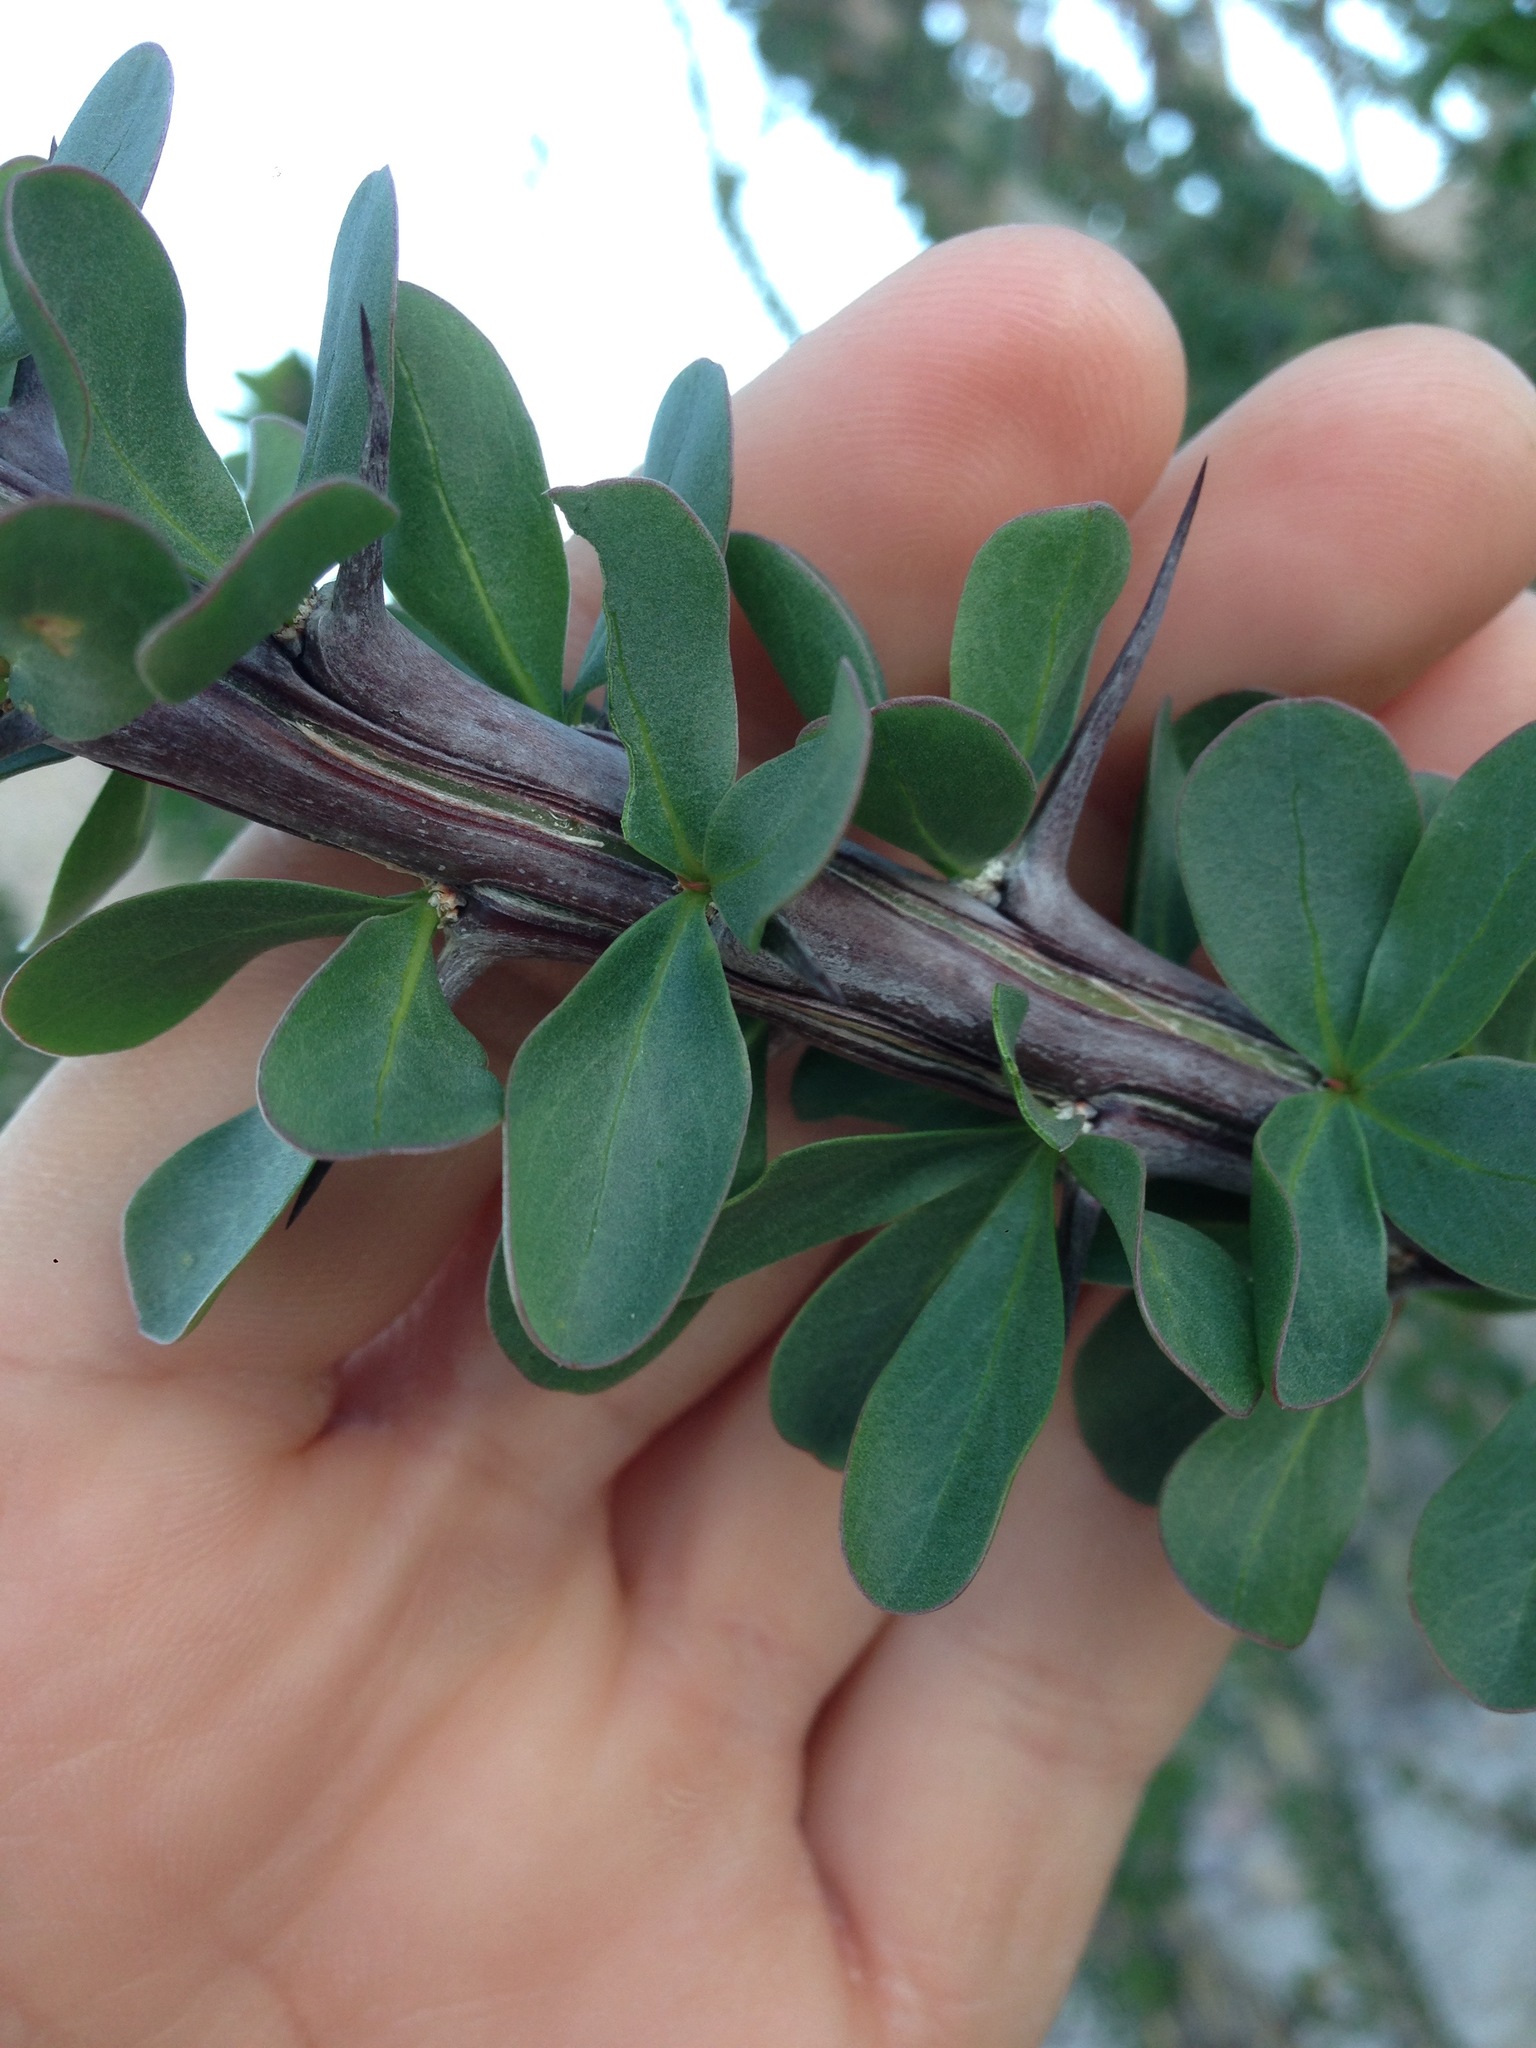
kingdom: Plantae
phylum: Tracheophyta
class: Magnoliopsida
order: Ericales
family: Fouquieriaceae
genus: Fouquieria
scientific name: Fouquieria splendens
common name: Vine-cactus
